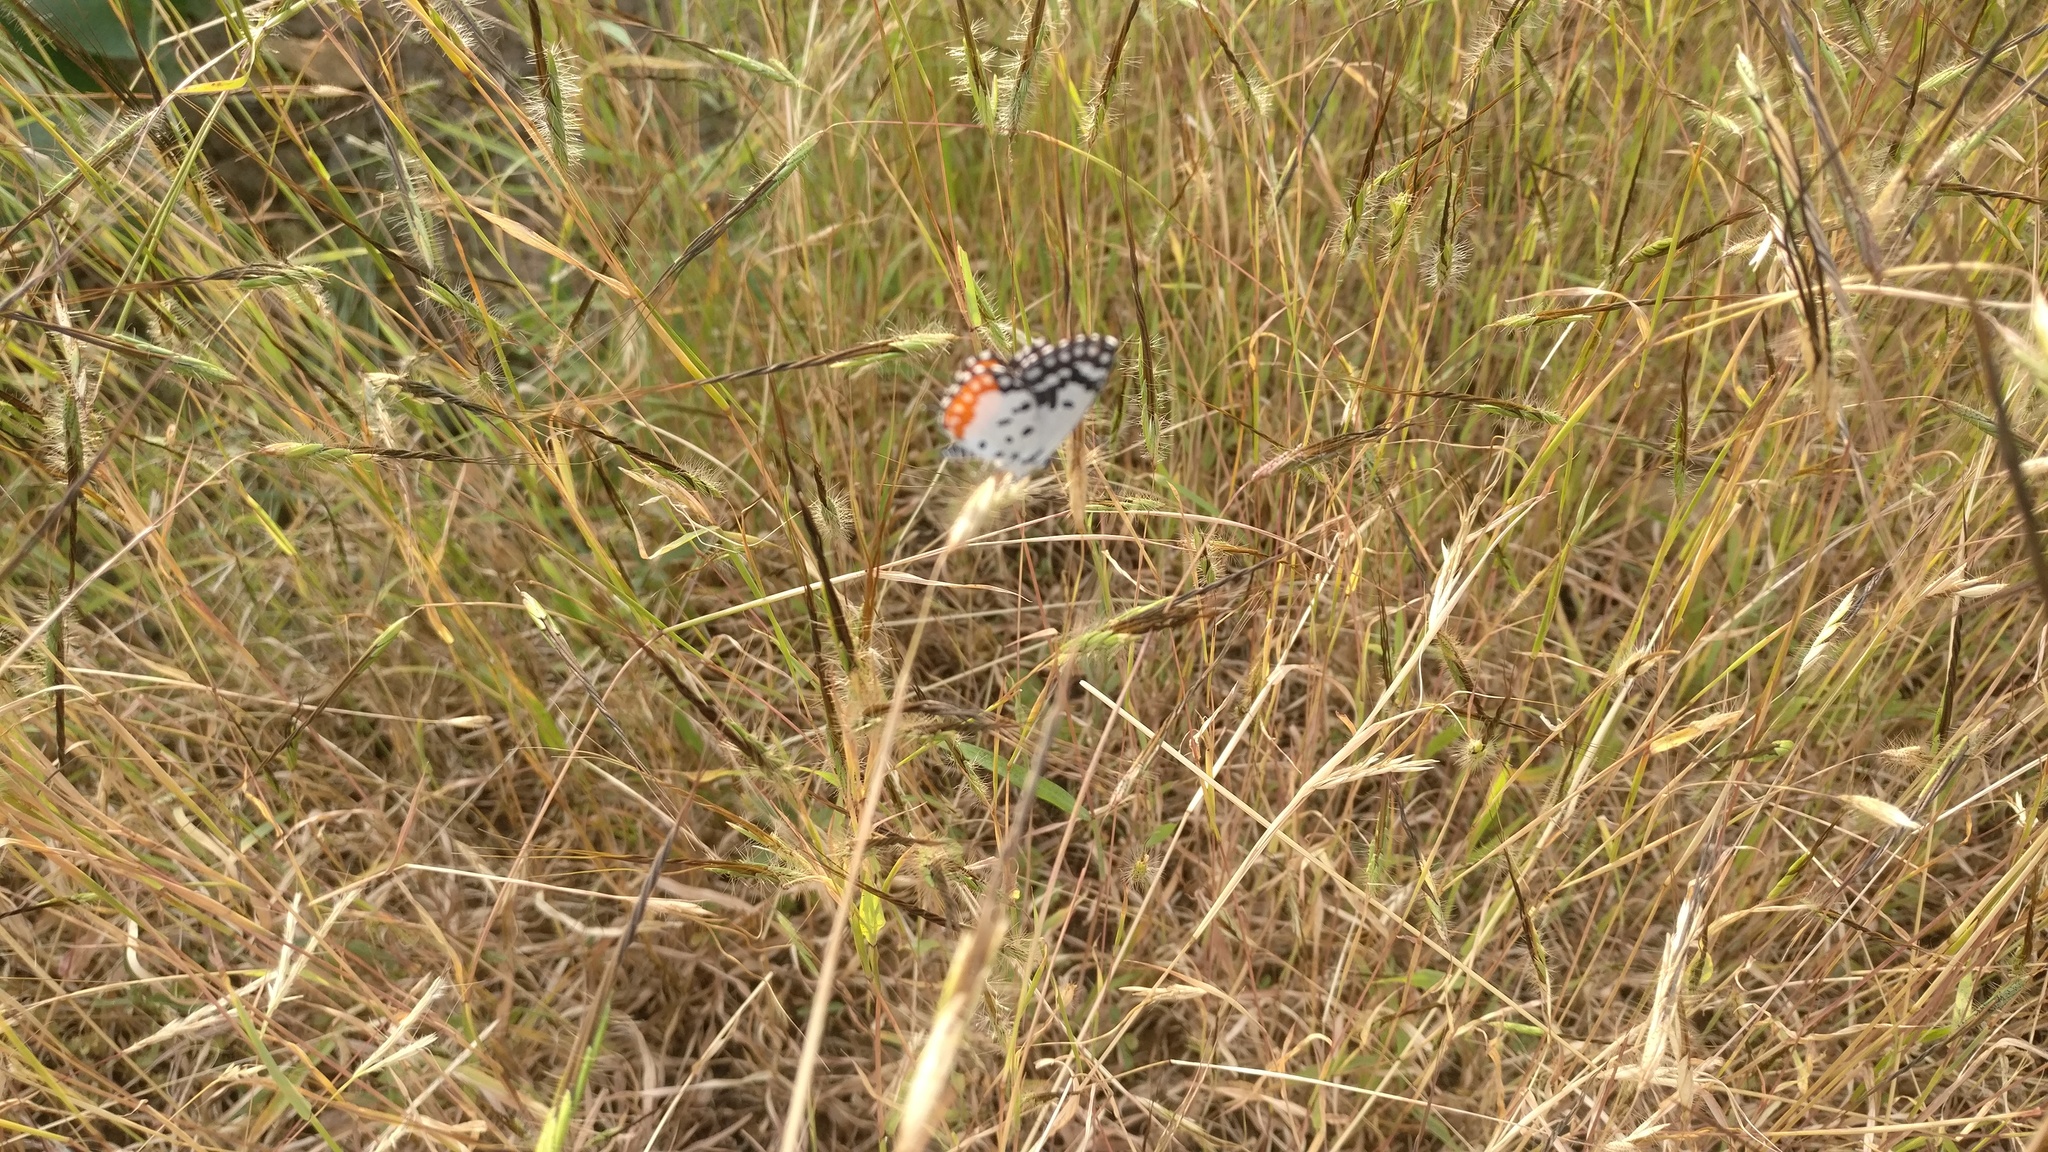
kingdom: Animalia
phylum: Arthropoda
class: Insecta
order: Lepidoptera
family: Lycaenidae
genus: Talicada
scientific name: Talicada nyseus
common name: Red pierrot
